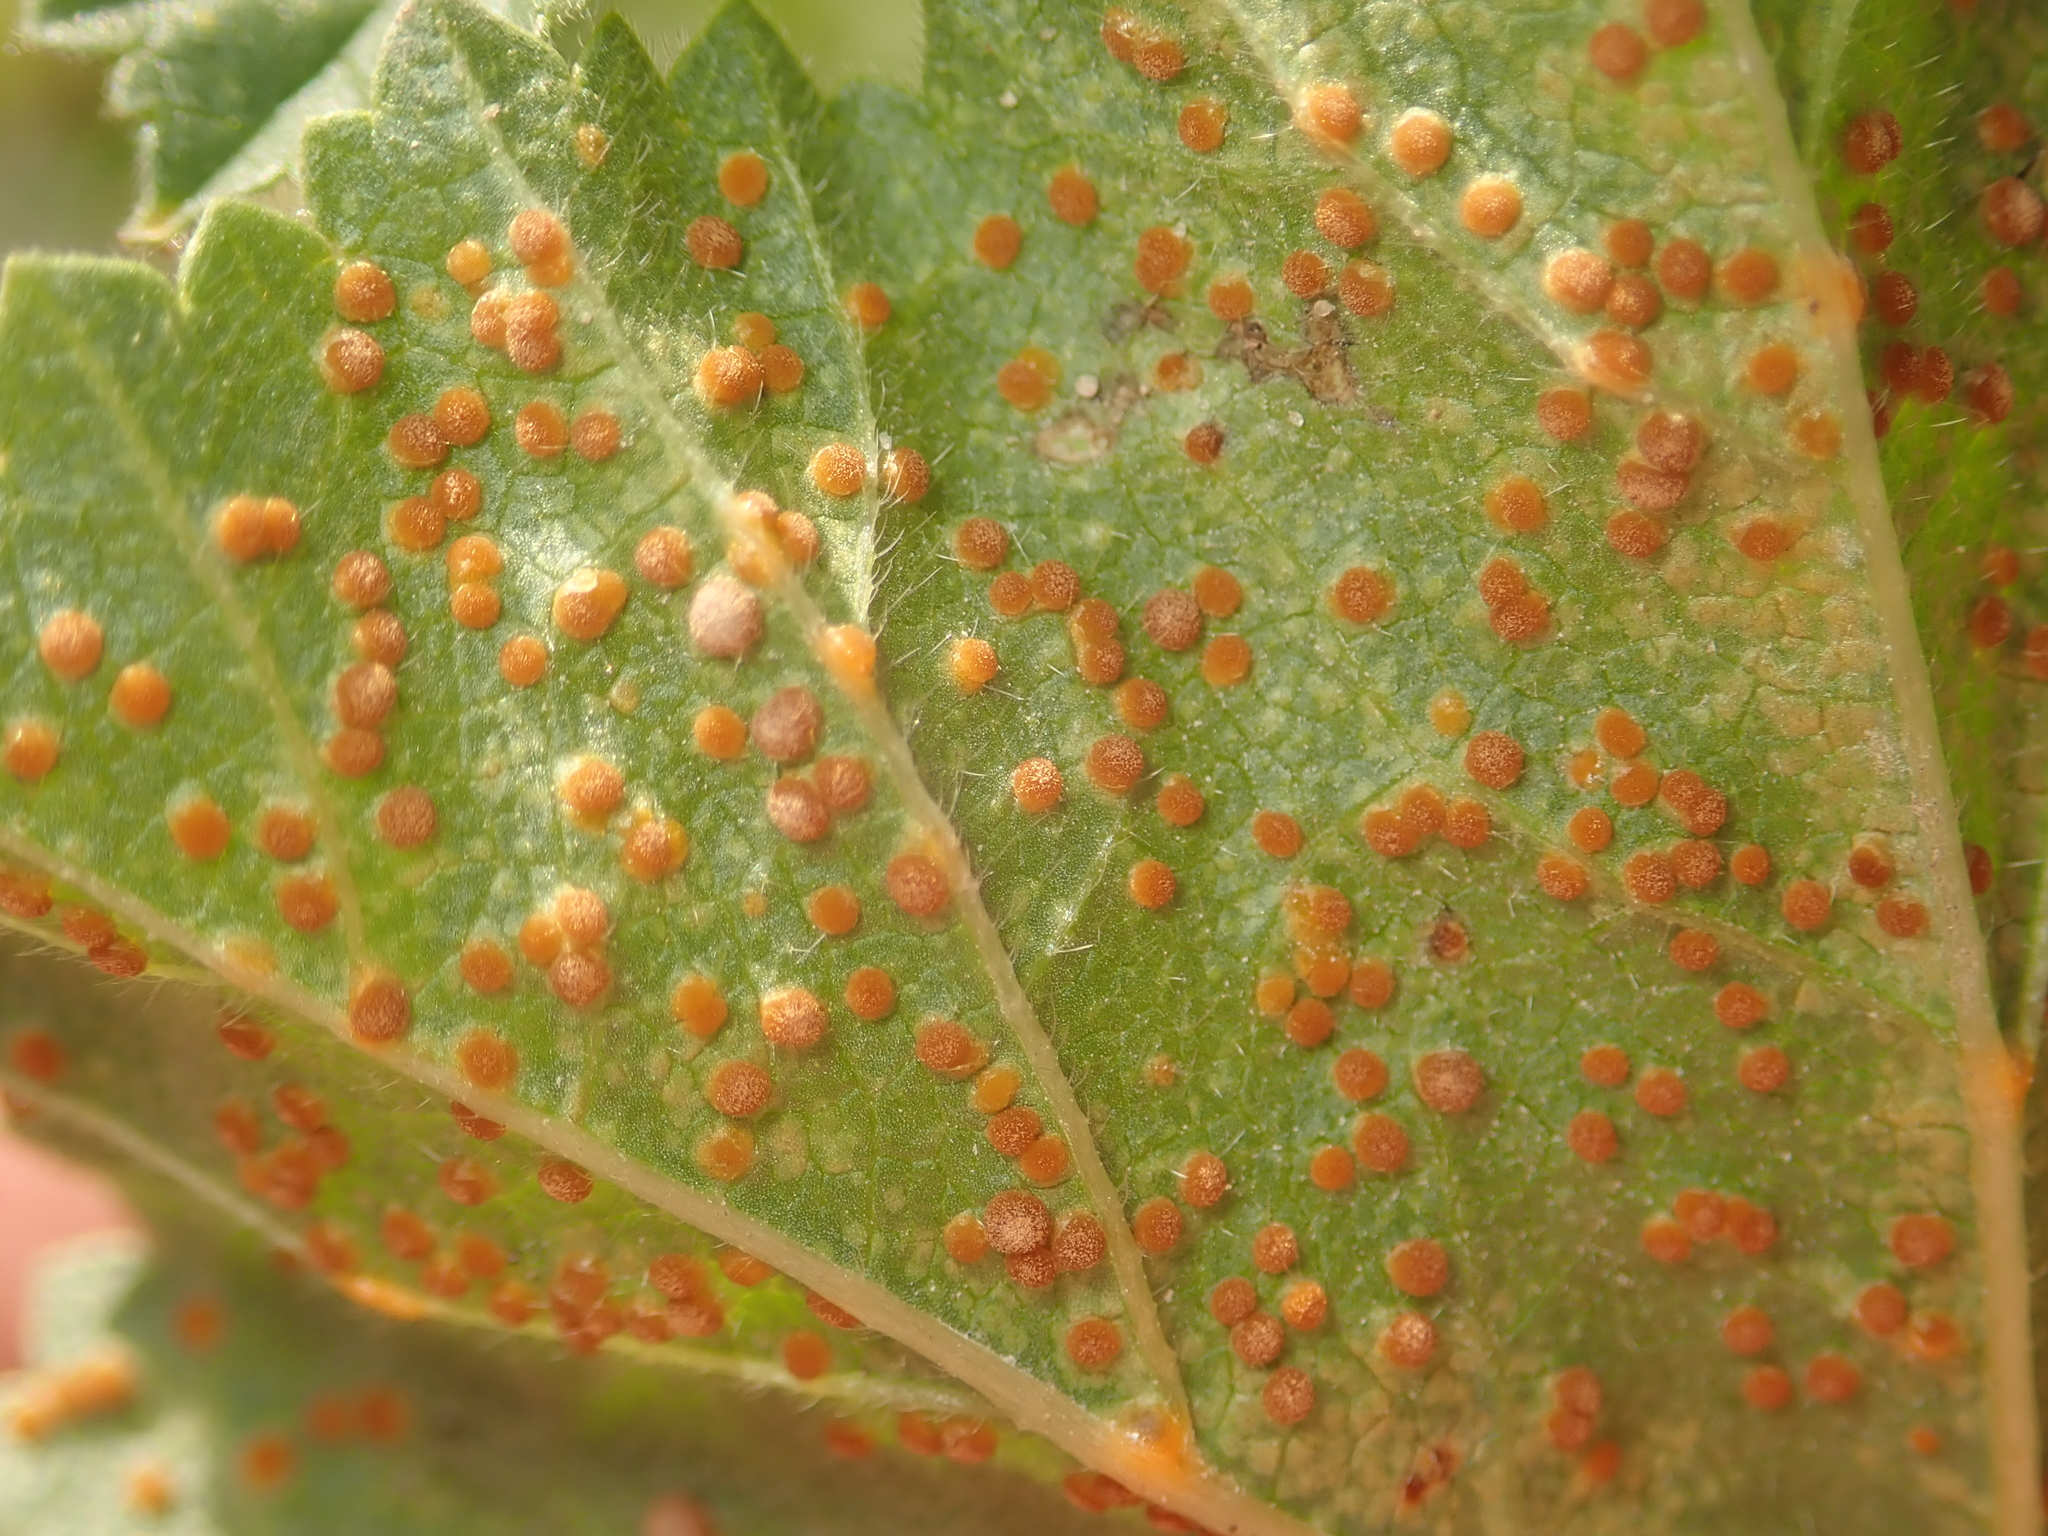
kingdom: Fungi
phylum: Basidiomycota
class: Pucciniomycetes
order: Pucciniales
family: Pucciniaceae
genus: Puccinia
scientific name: Puccinia malvacearum
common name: Hollyhock rust
